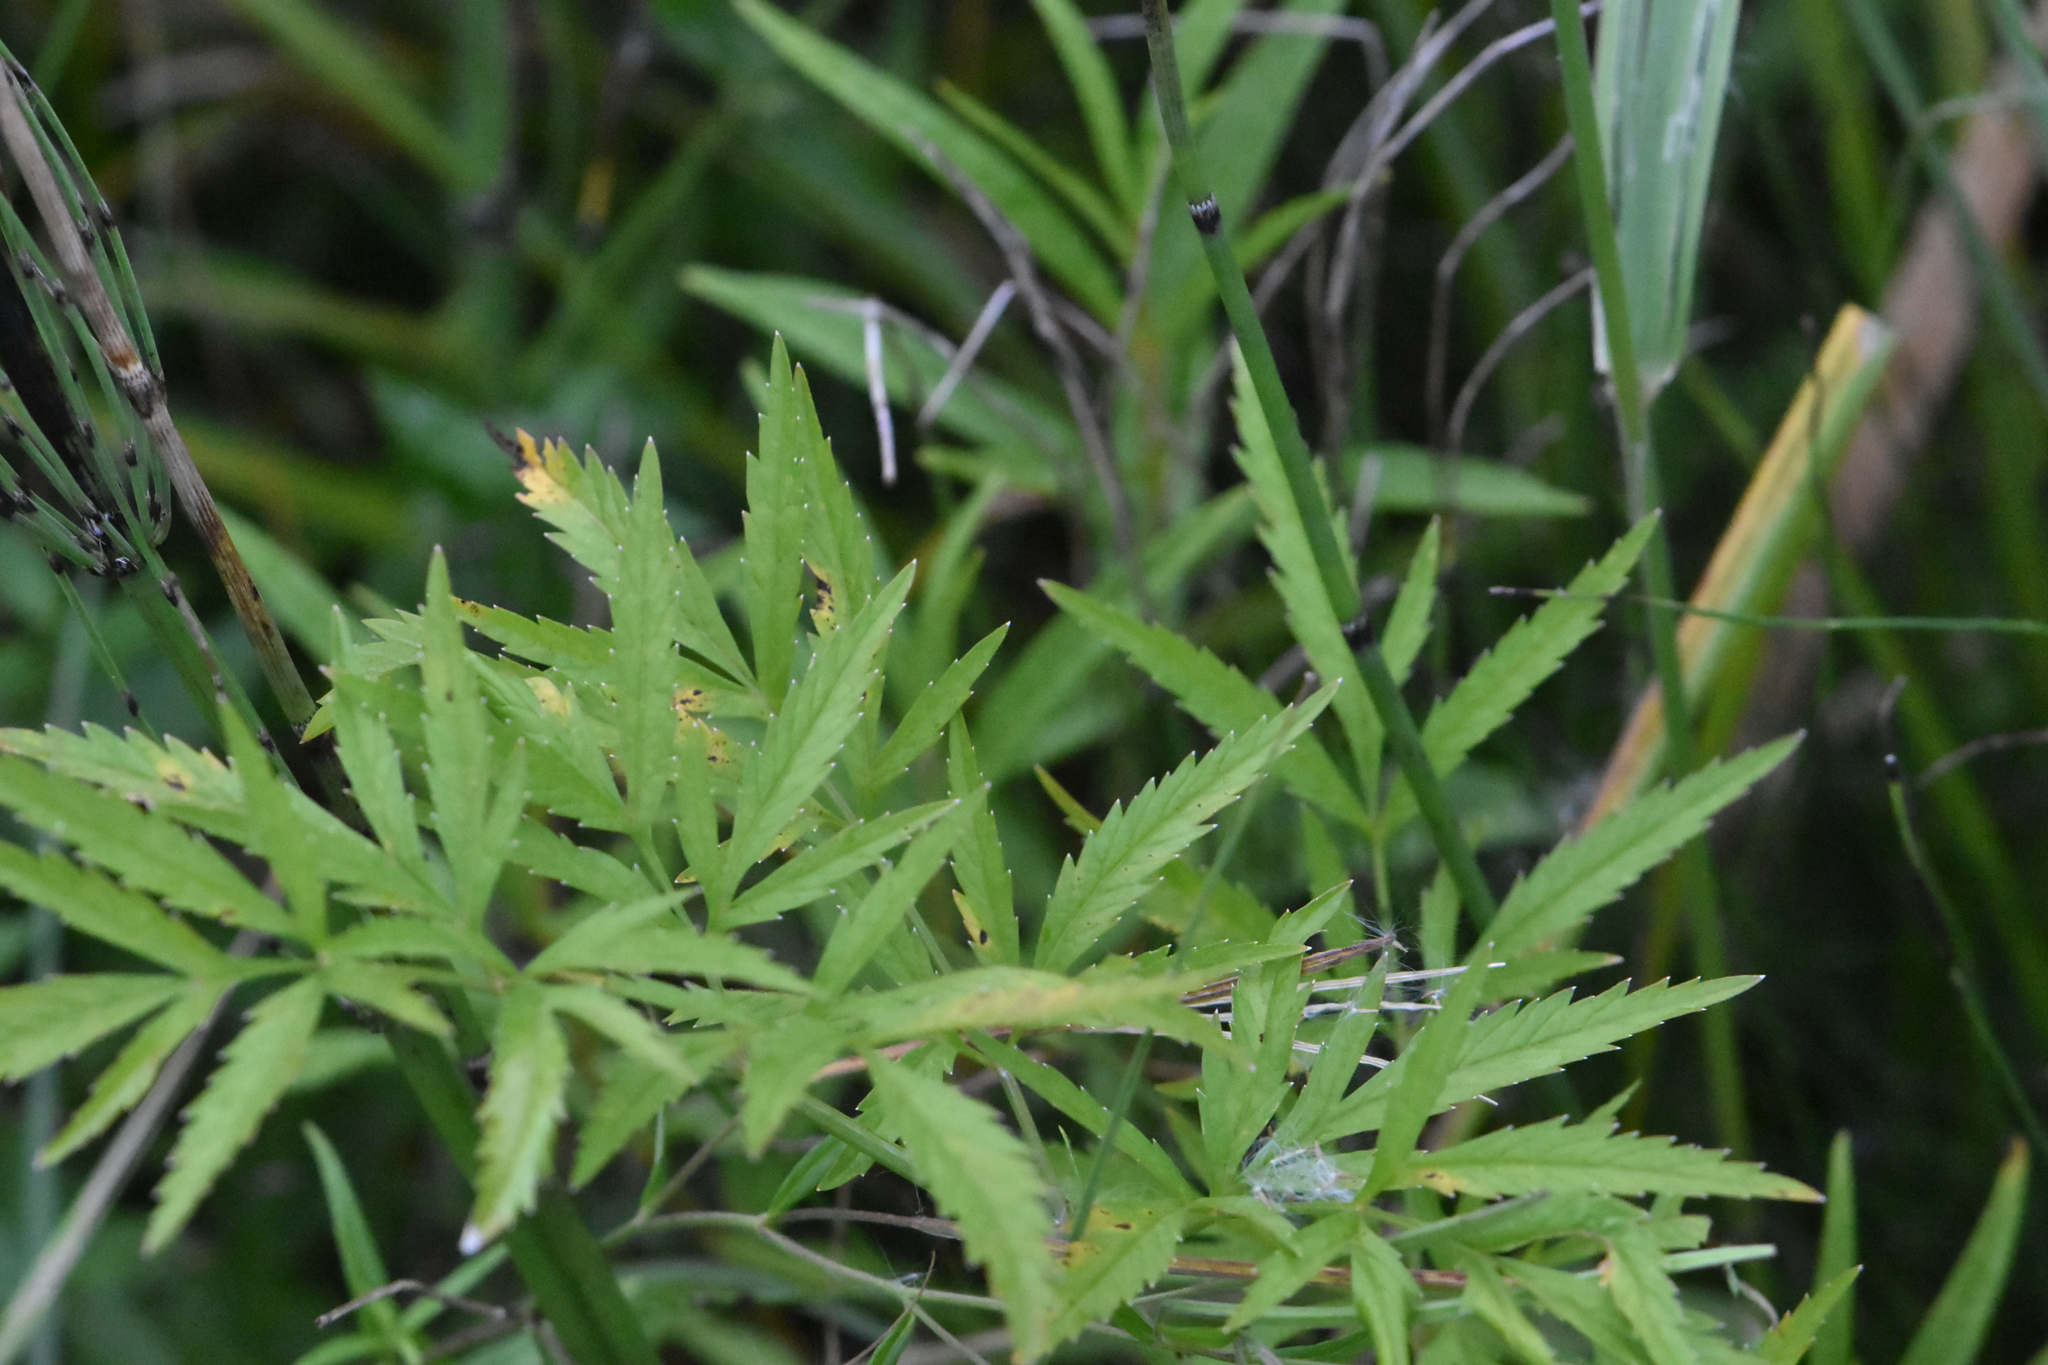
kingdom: Plantae
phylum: Tracheophyta
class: Magnoliopsida
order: Apiales
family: Apiaceae
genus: Cicuta
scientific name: Cicuta virosa
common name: Cowbane
